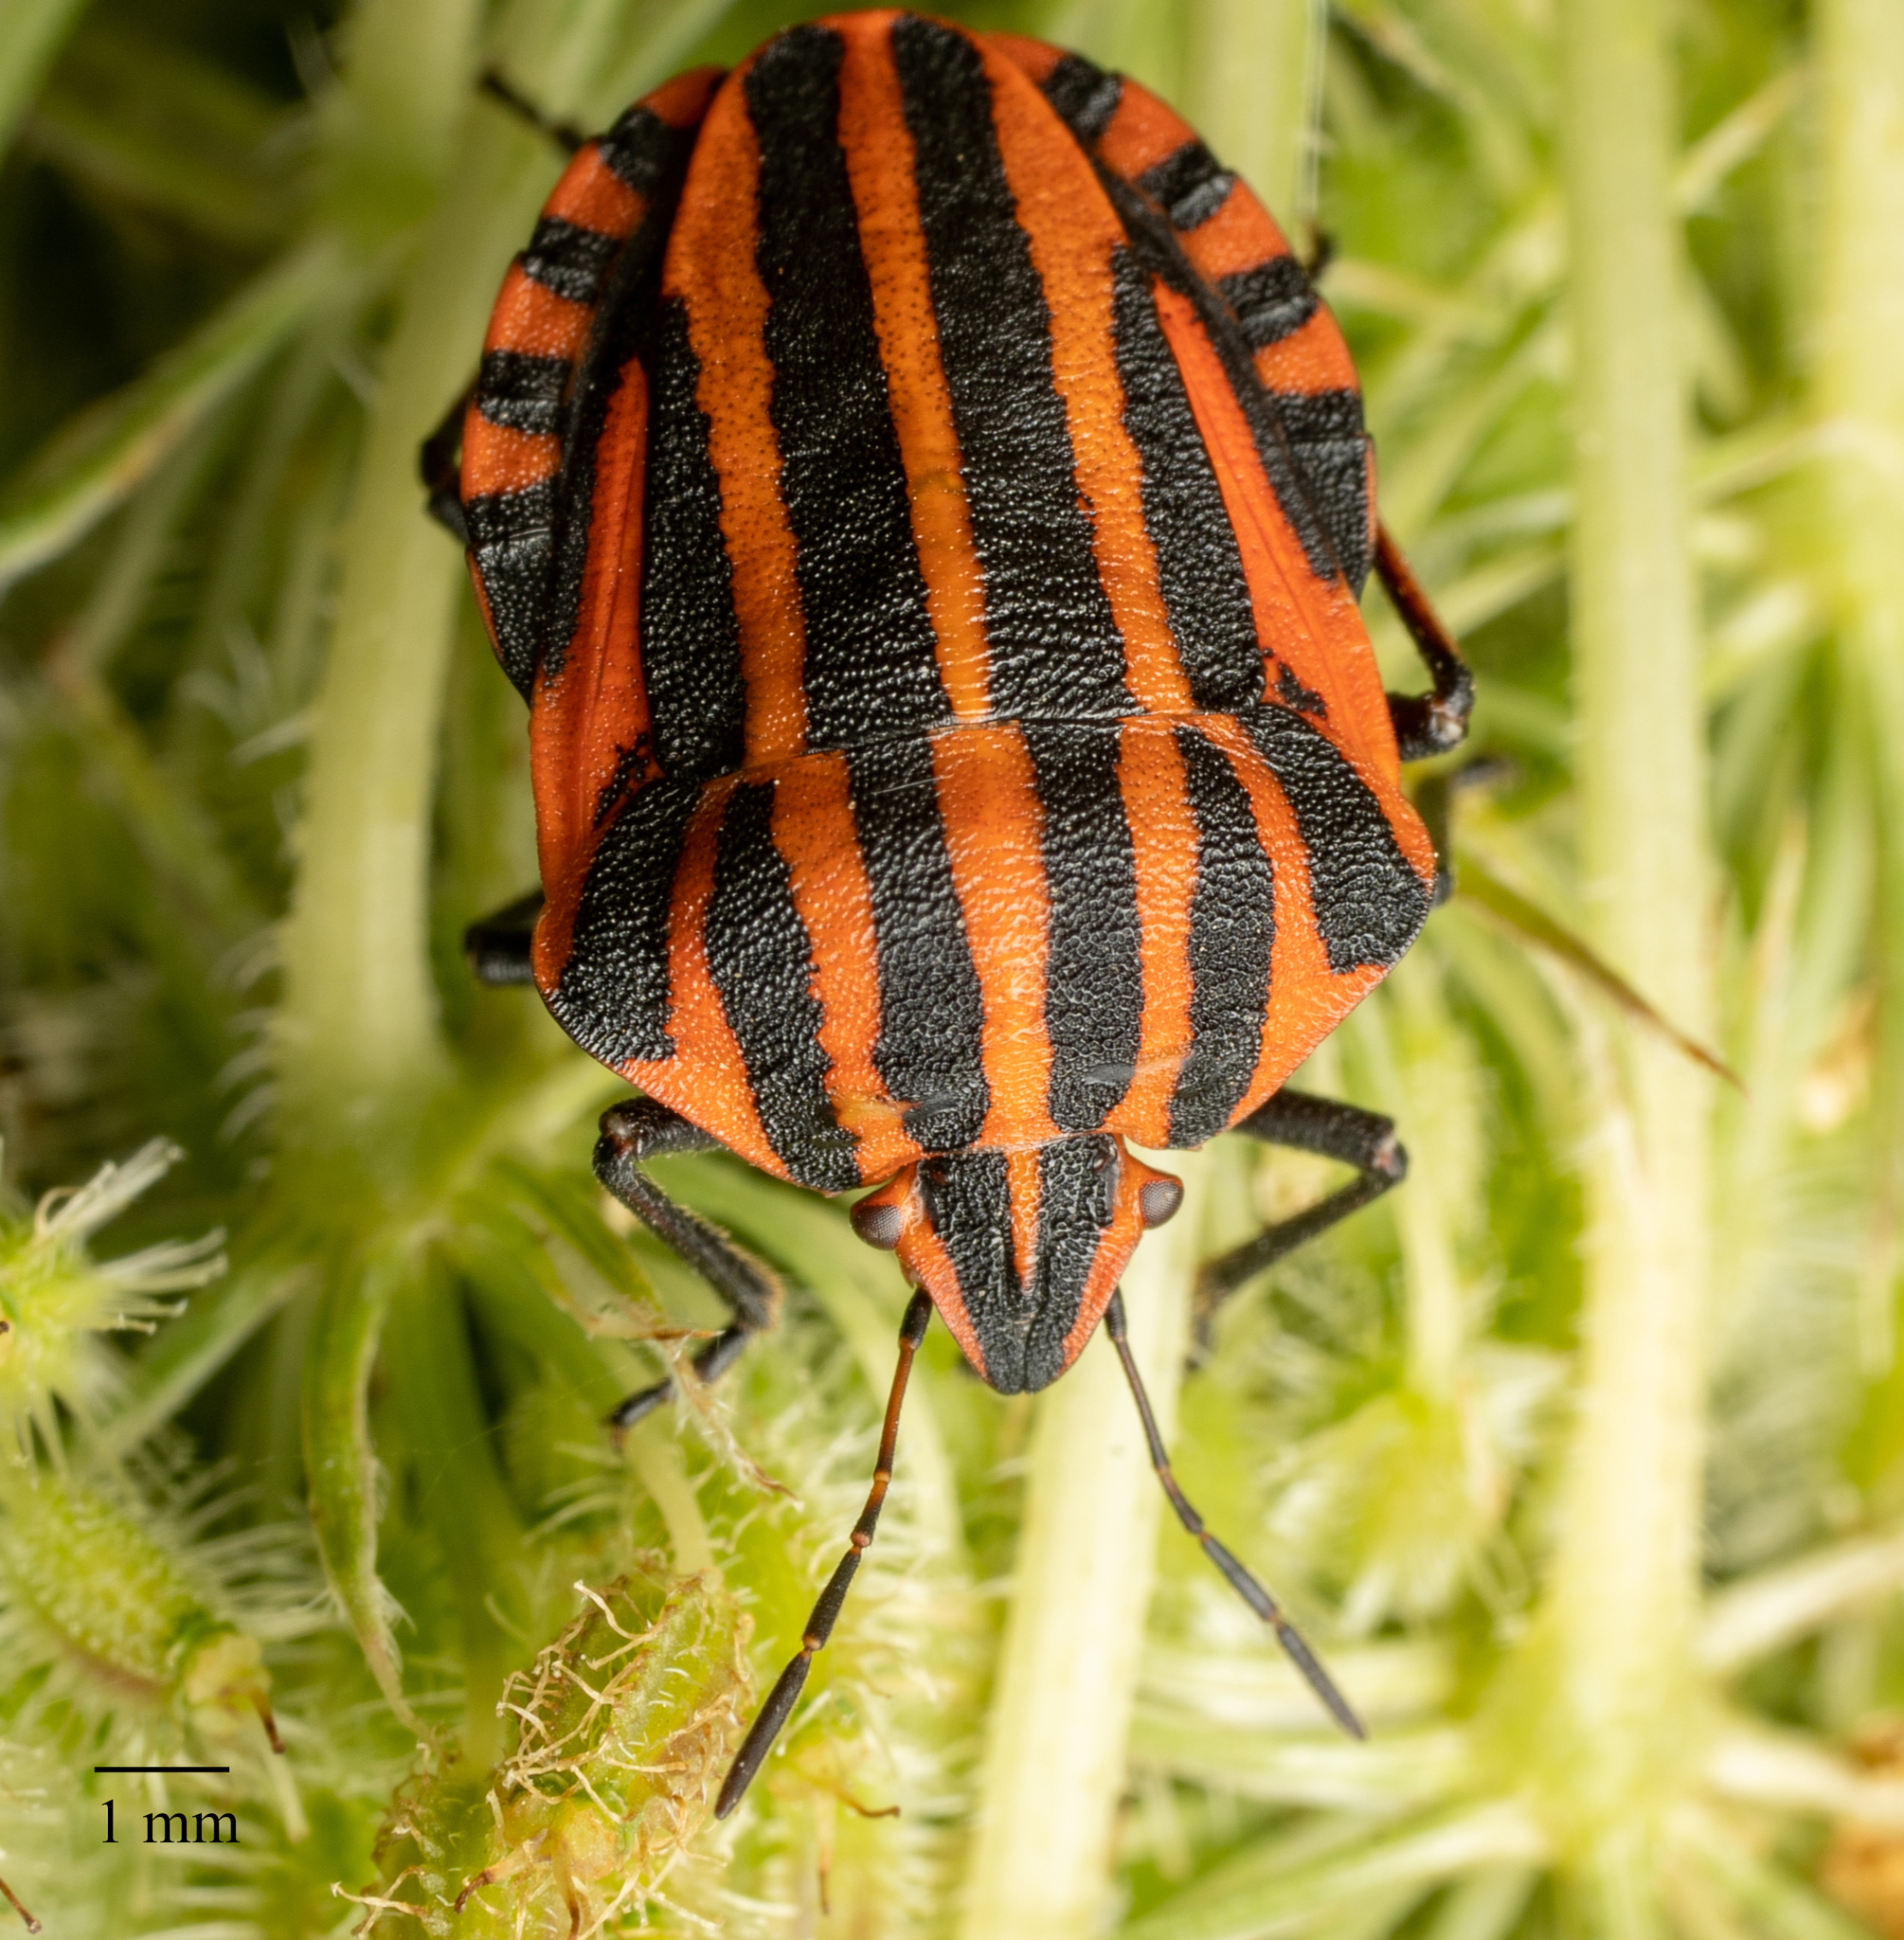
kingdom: Animalia
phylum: Arthropoda
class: Insecta
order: Hemiptera
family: Pentatomidae
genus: Graphosoma
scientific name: Graphosoma italicum
